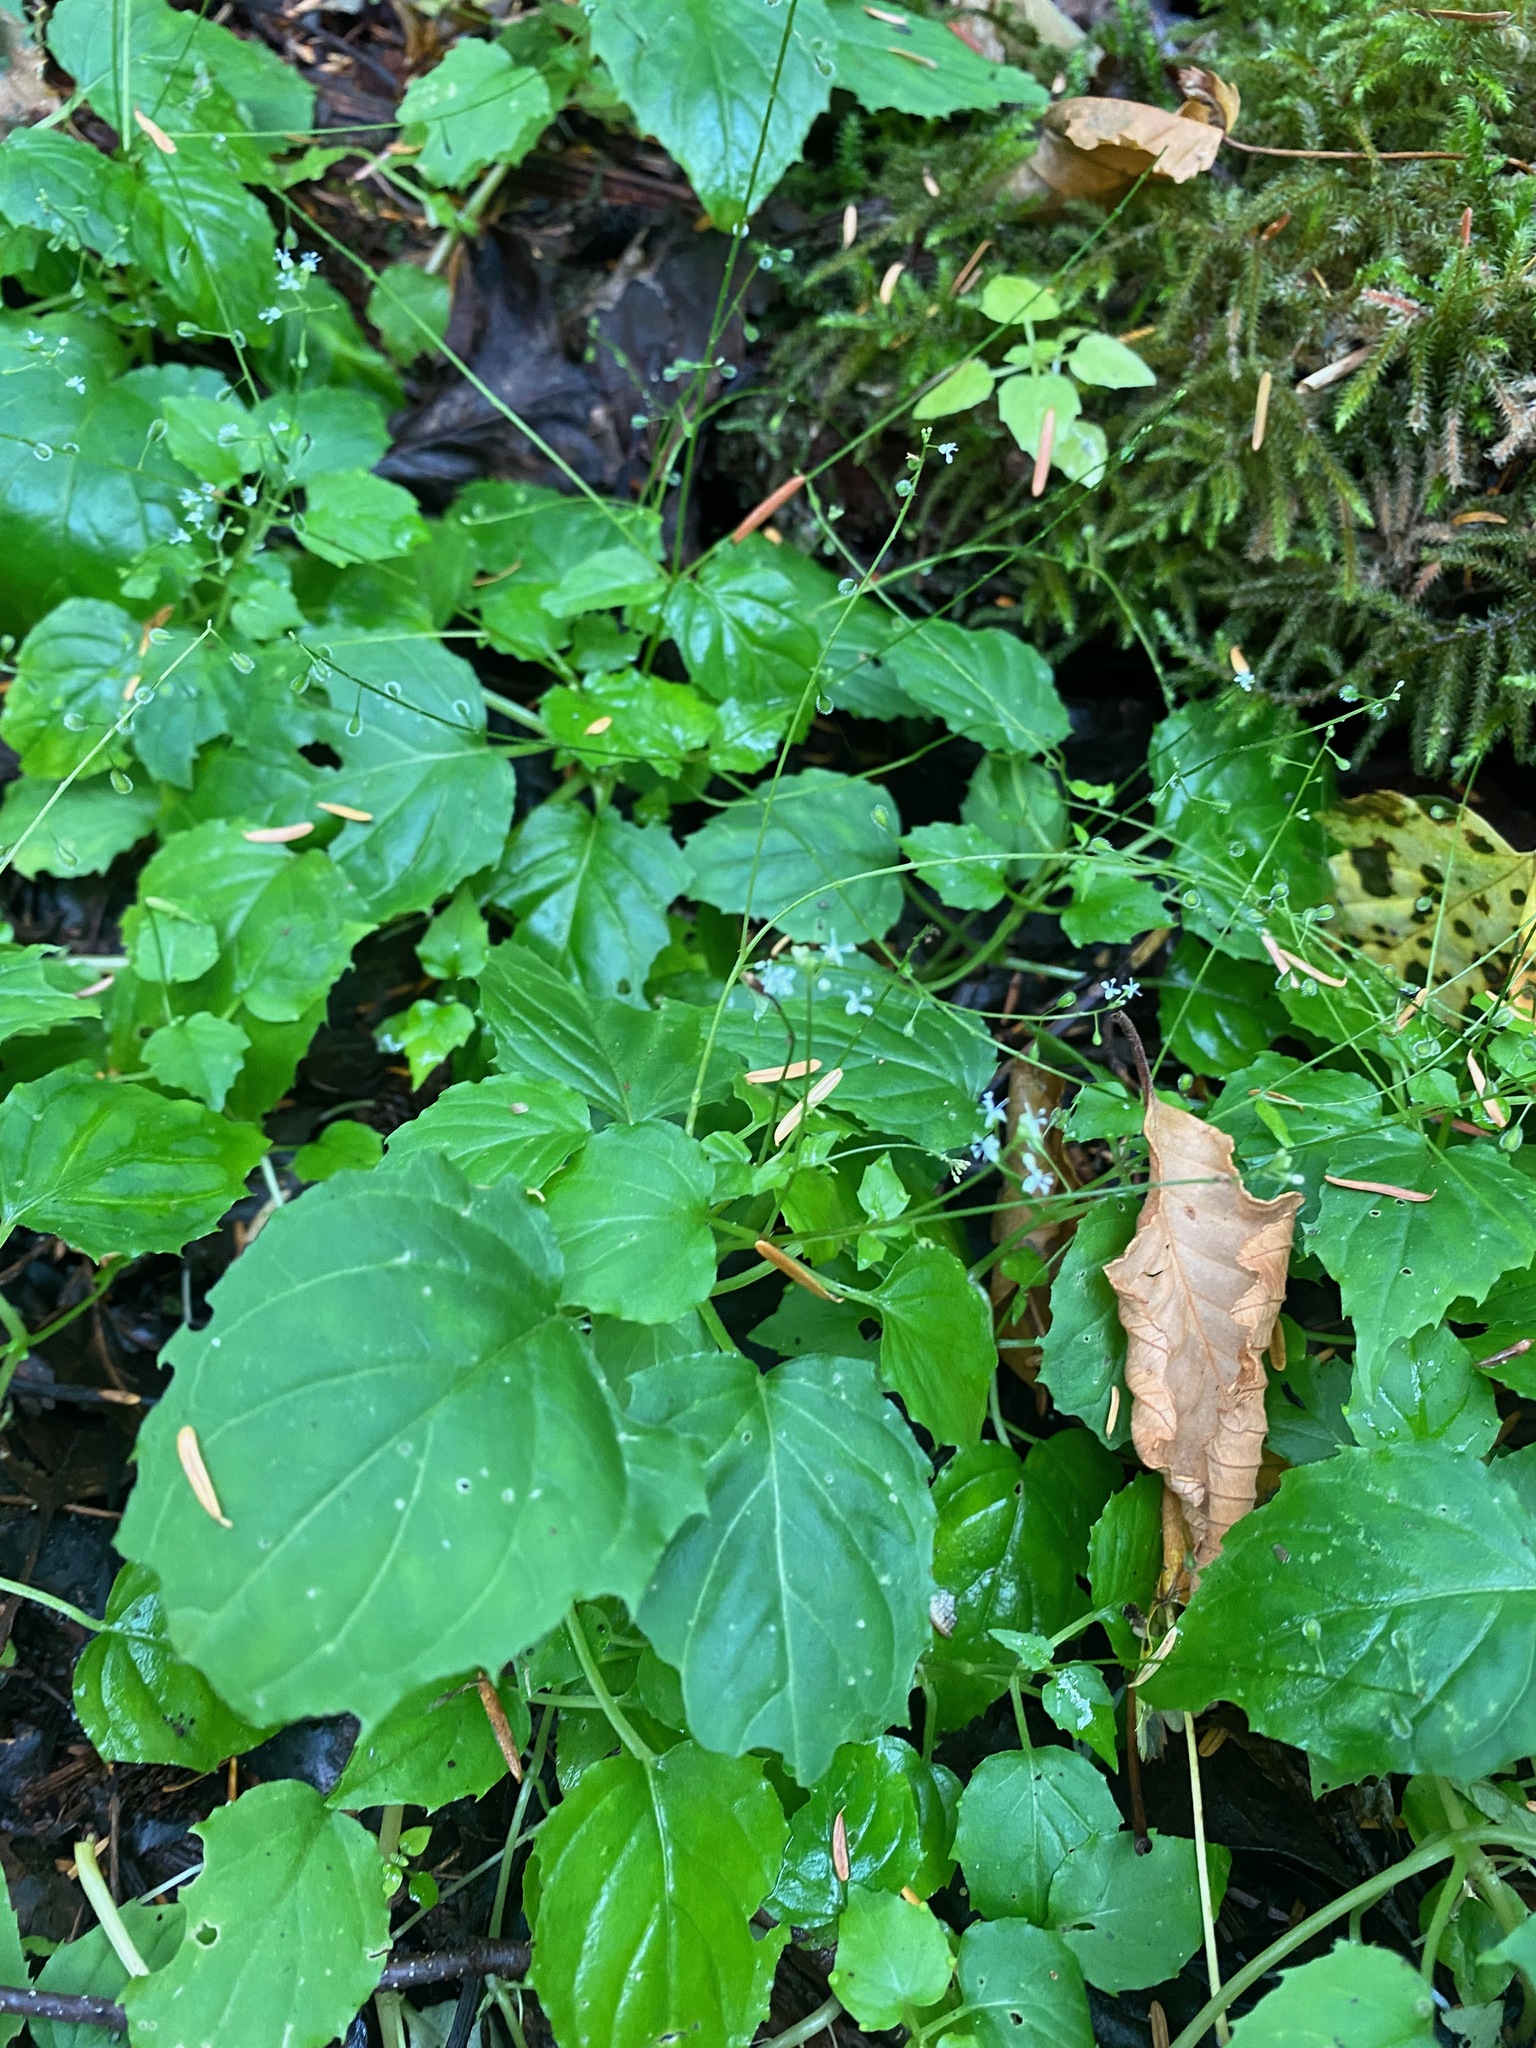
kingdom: Plantae
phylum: Tracheophyta
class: Magnoliopsida
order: Myrtales
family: Onagraceae
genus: Circaea
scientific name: Circaea alpina
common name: Alpine enchanter's-nightshade
